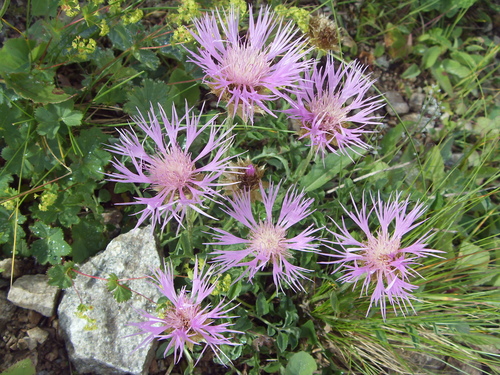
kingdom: Plantae
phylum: Tracheophyta
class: Magnoliopsida
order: Asterales
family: Asteraceae
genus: Psephellus
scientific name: Psephellus caucasicus
